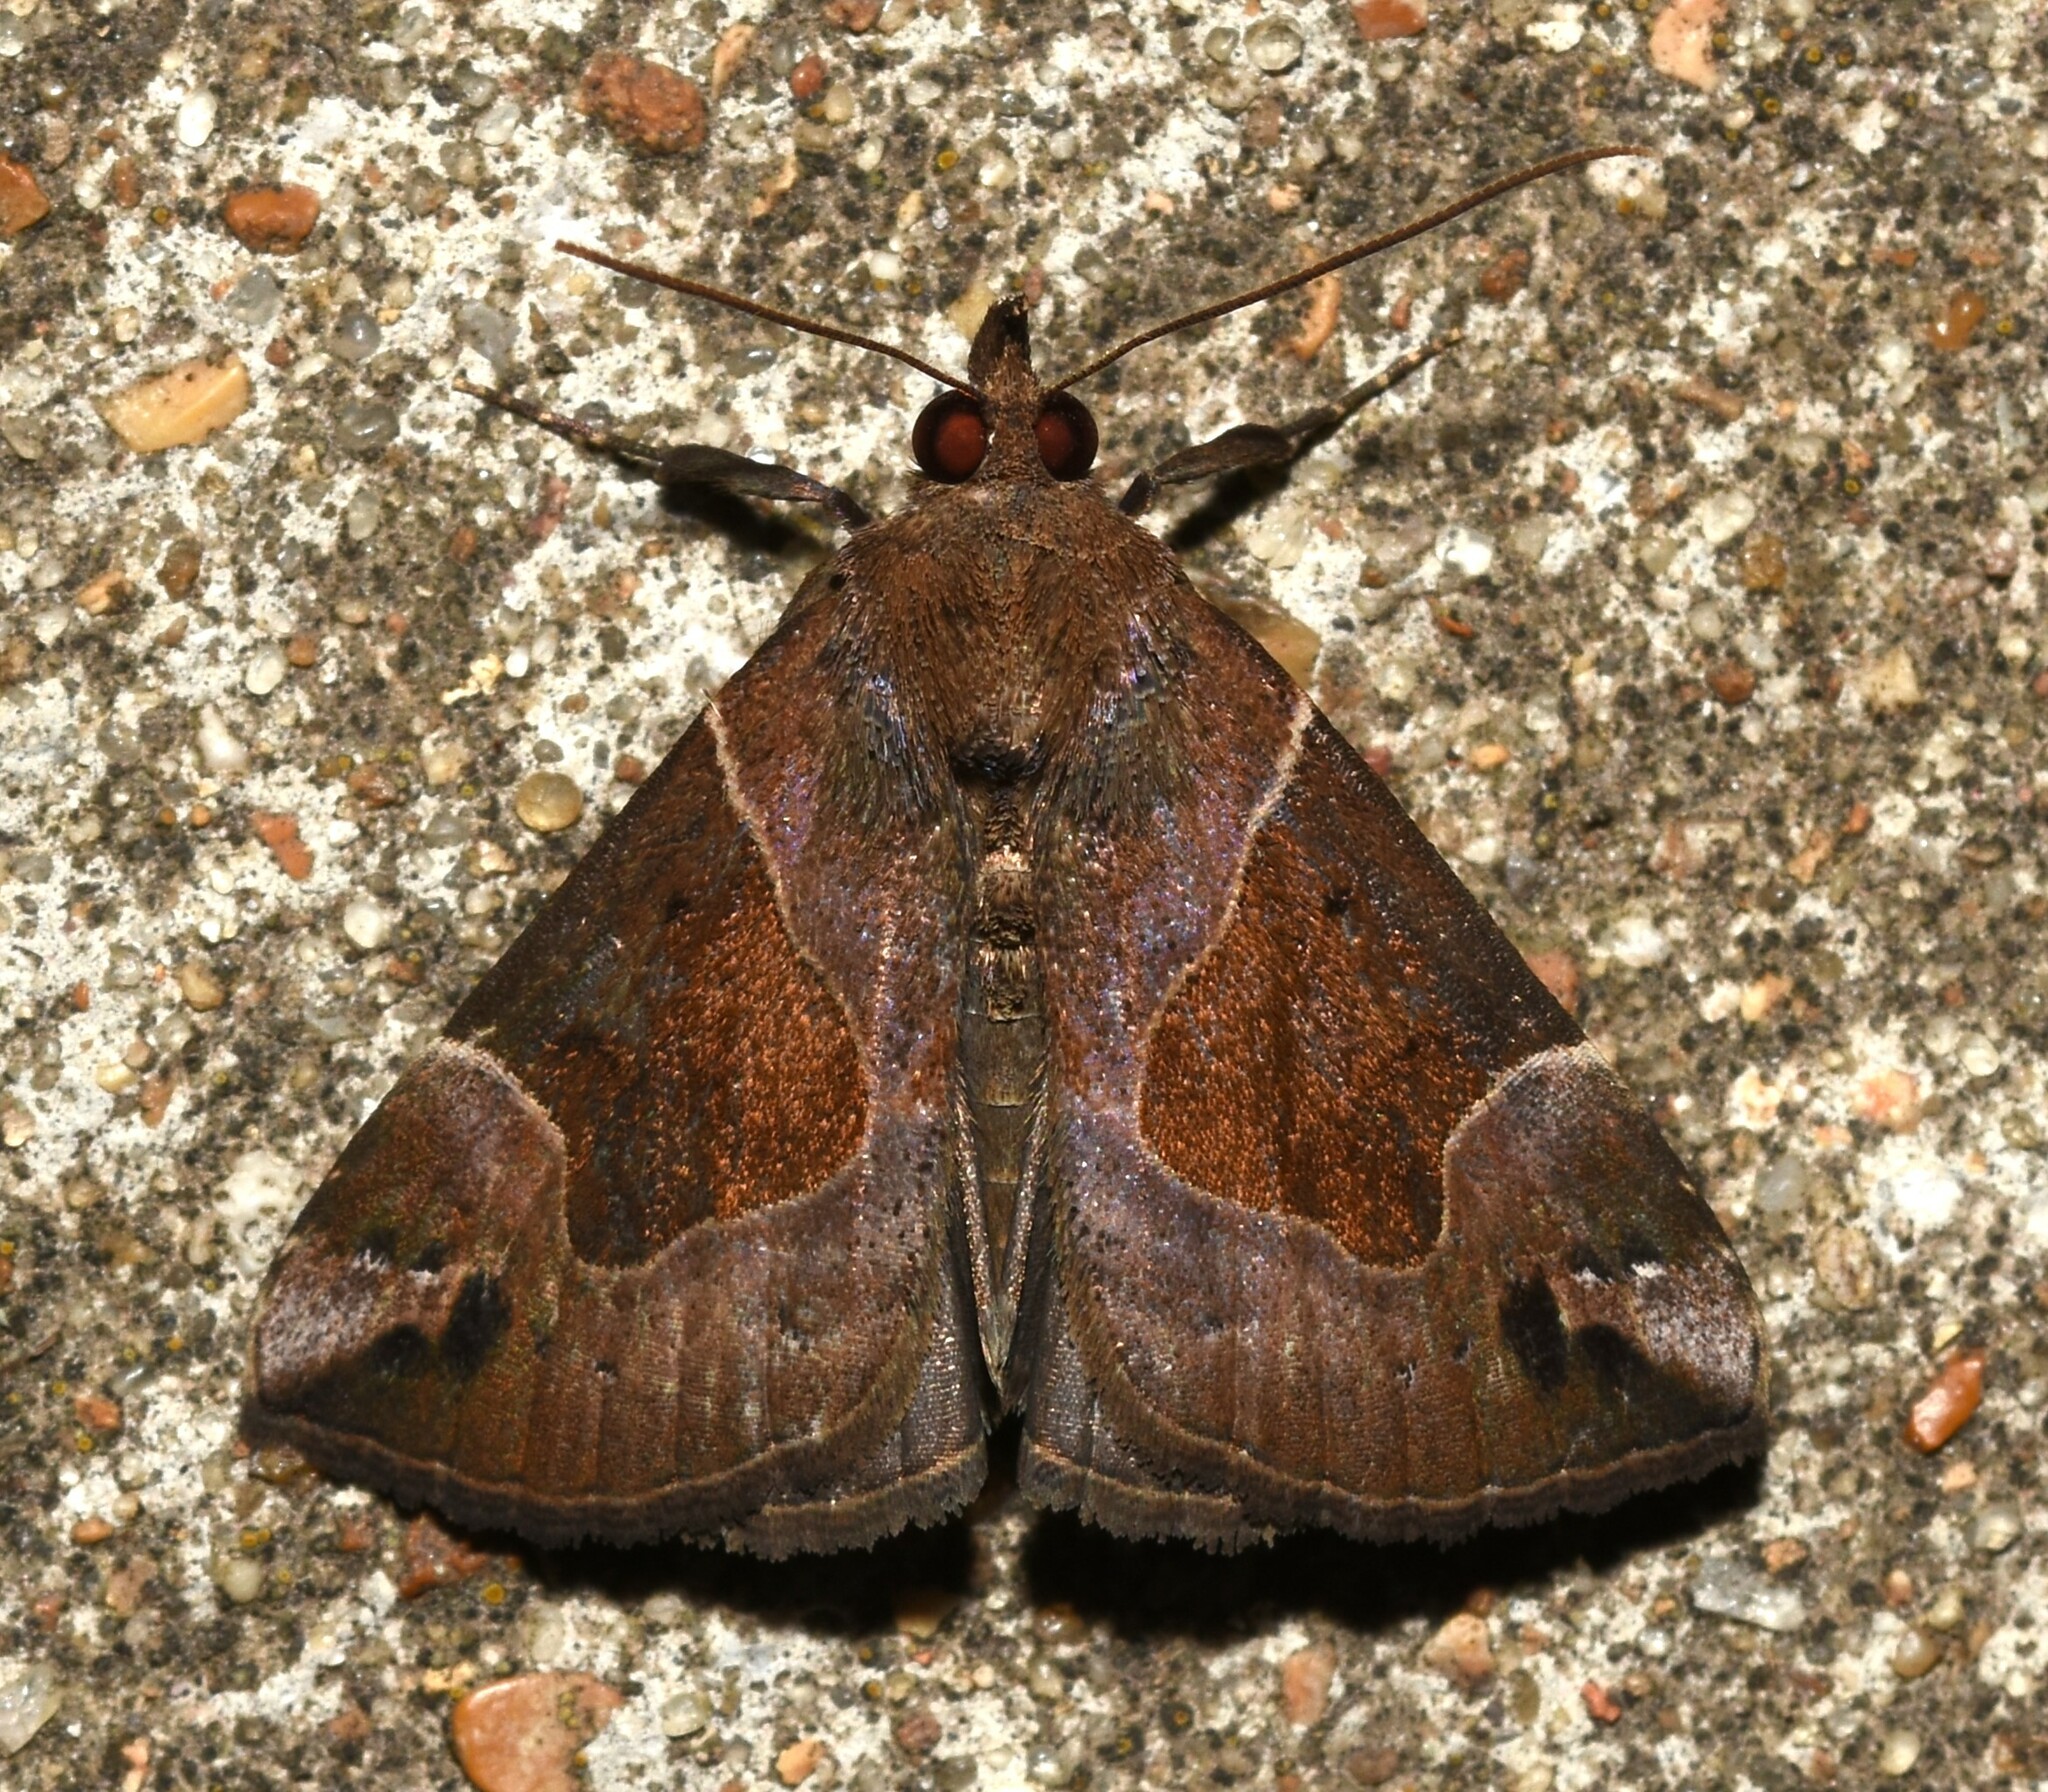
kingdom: Animalia
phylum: Arthropoda
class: Insecta
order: Lepidoptera
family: Erebidae
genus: Hypena
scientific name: Hypena manalis
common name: Flowing-line bomolocha moth
